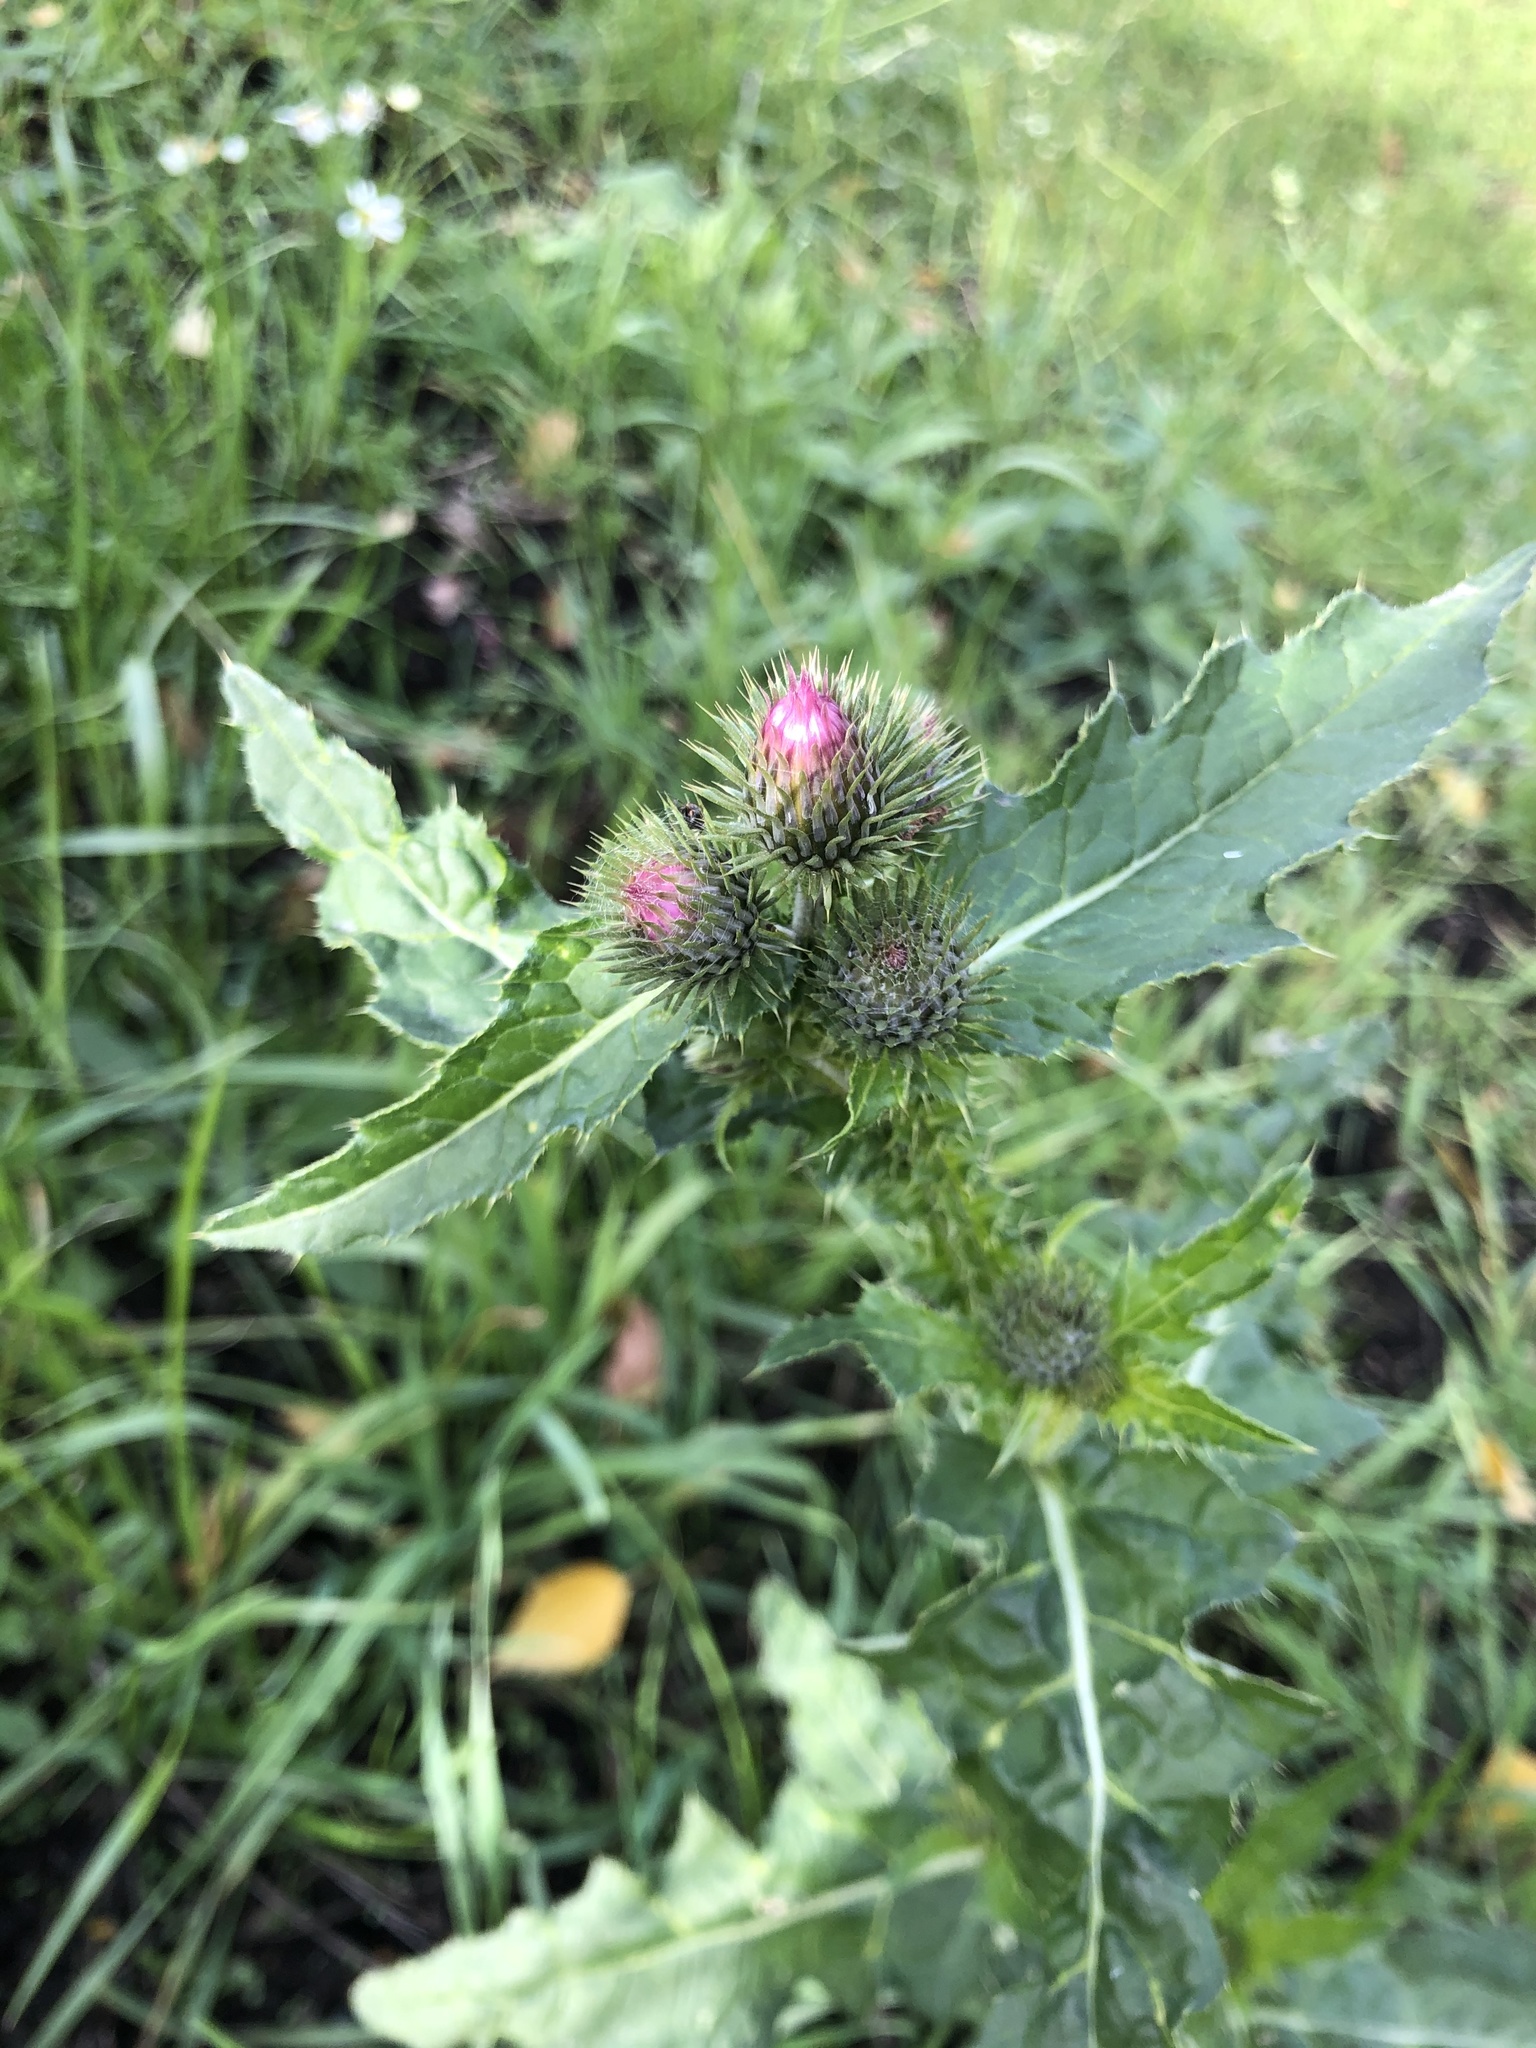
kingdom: Plantae
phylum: Tracheophyta
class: Magnoliopsida
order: Asterales
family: Asteraceae
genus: Carduus
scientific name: Carduus crispus
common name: Welted thistle
